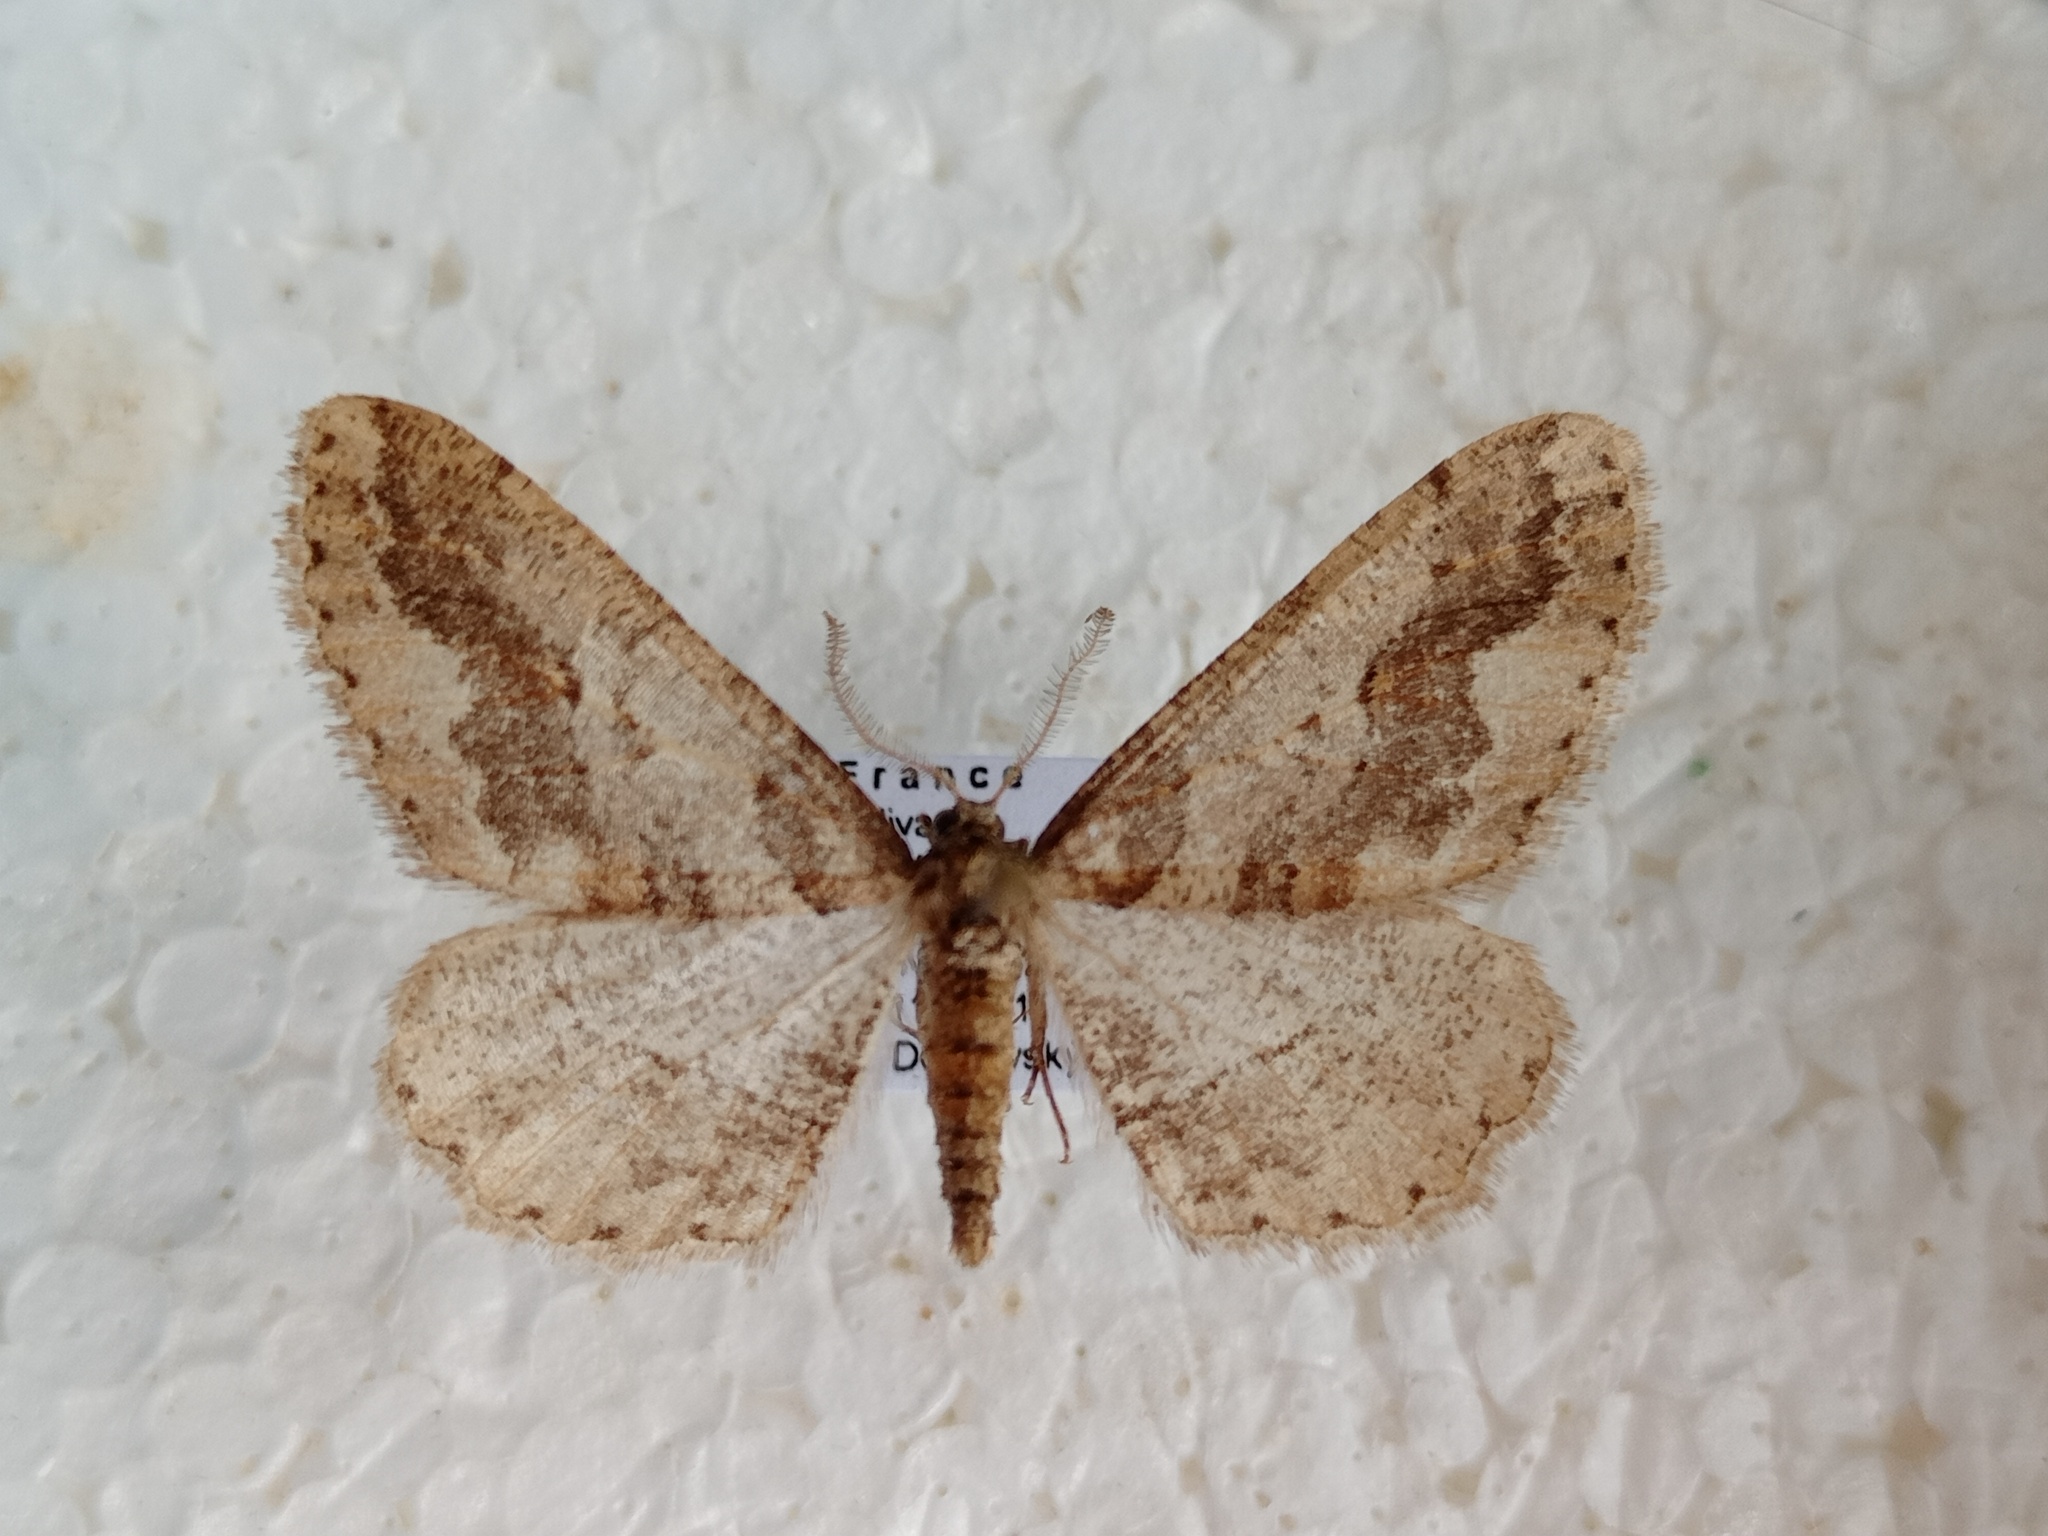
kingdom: Animalia
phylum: Arthropoda
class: Insecta
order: Lepidoptera
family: Geometridae
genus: Agriopis
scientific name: Agriopis bajaria
